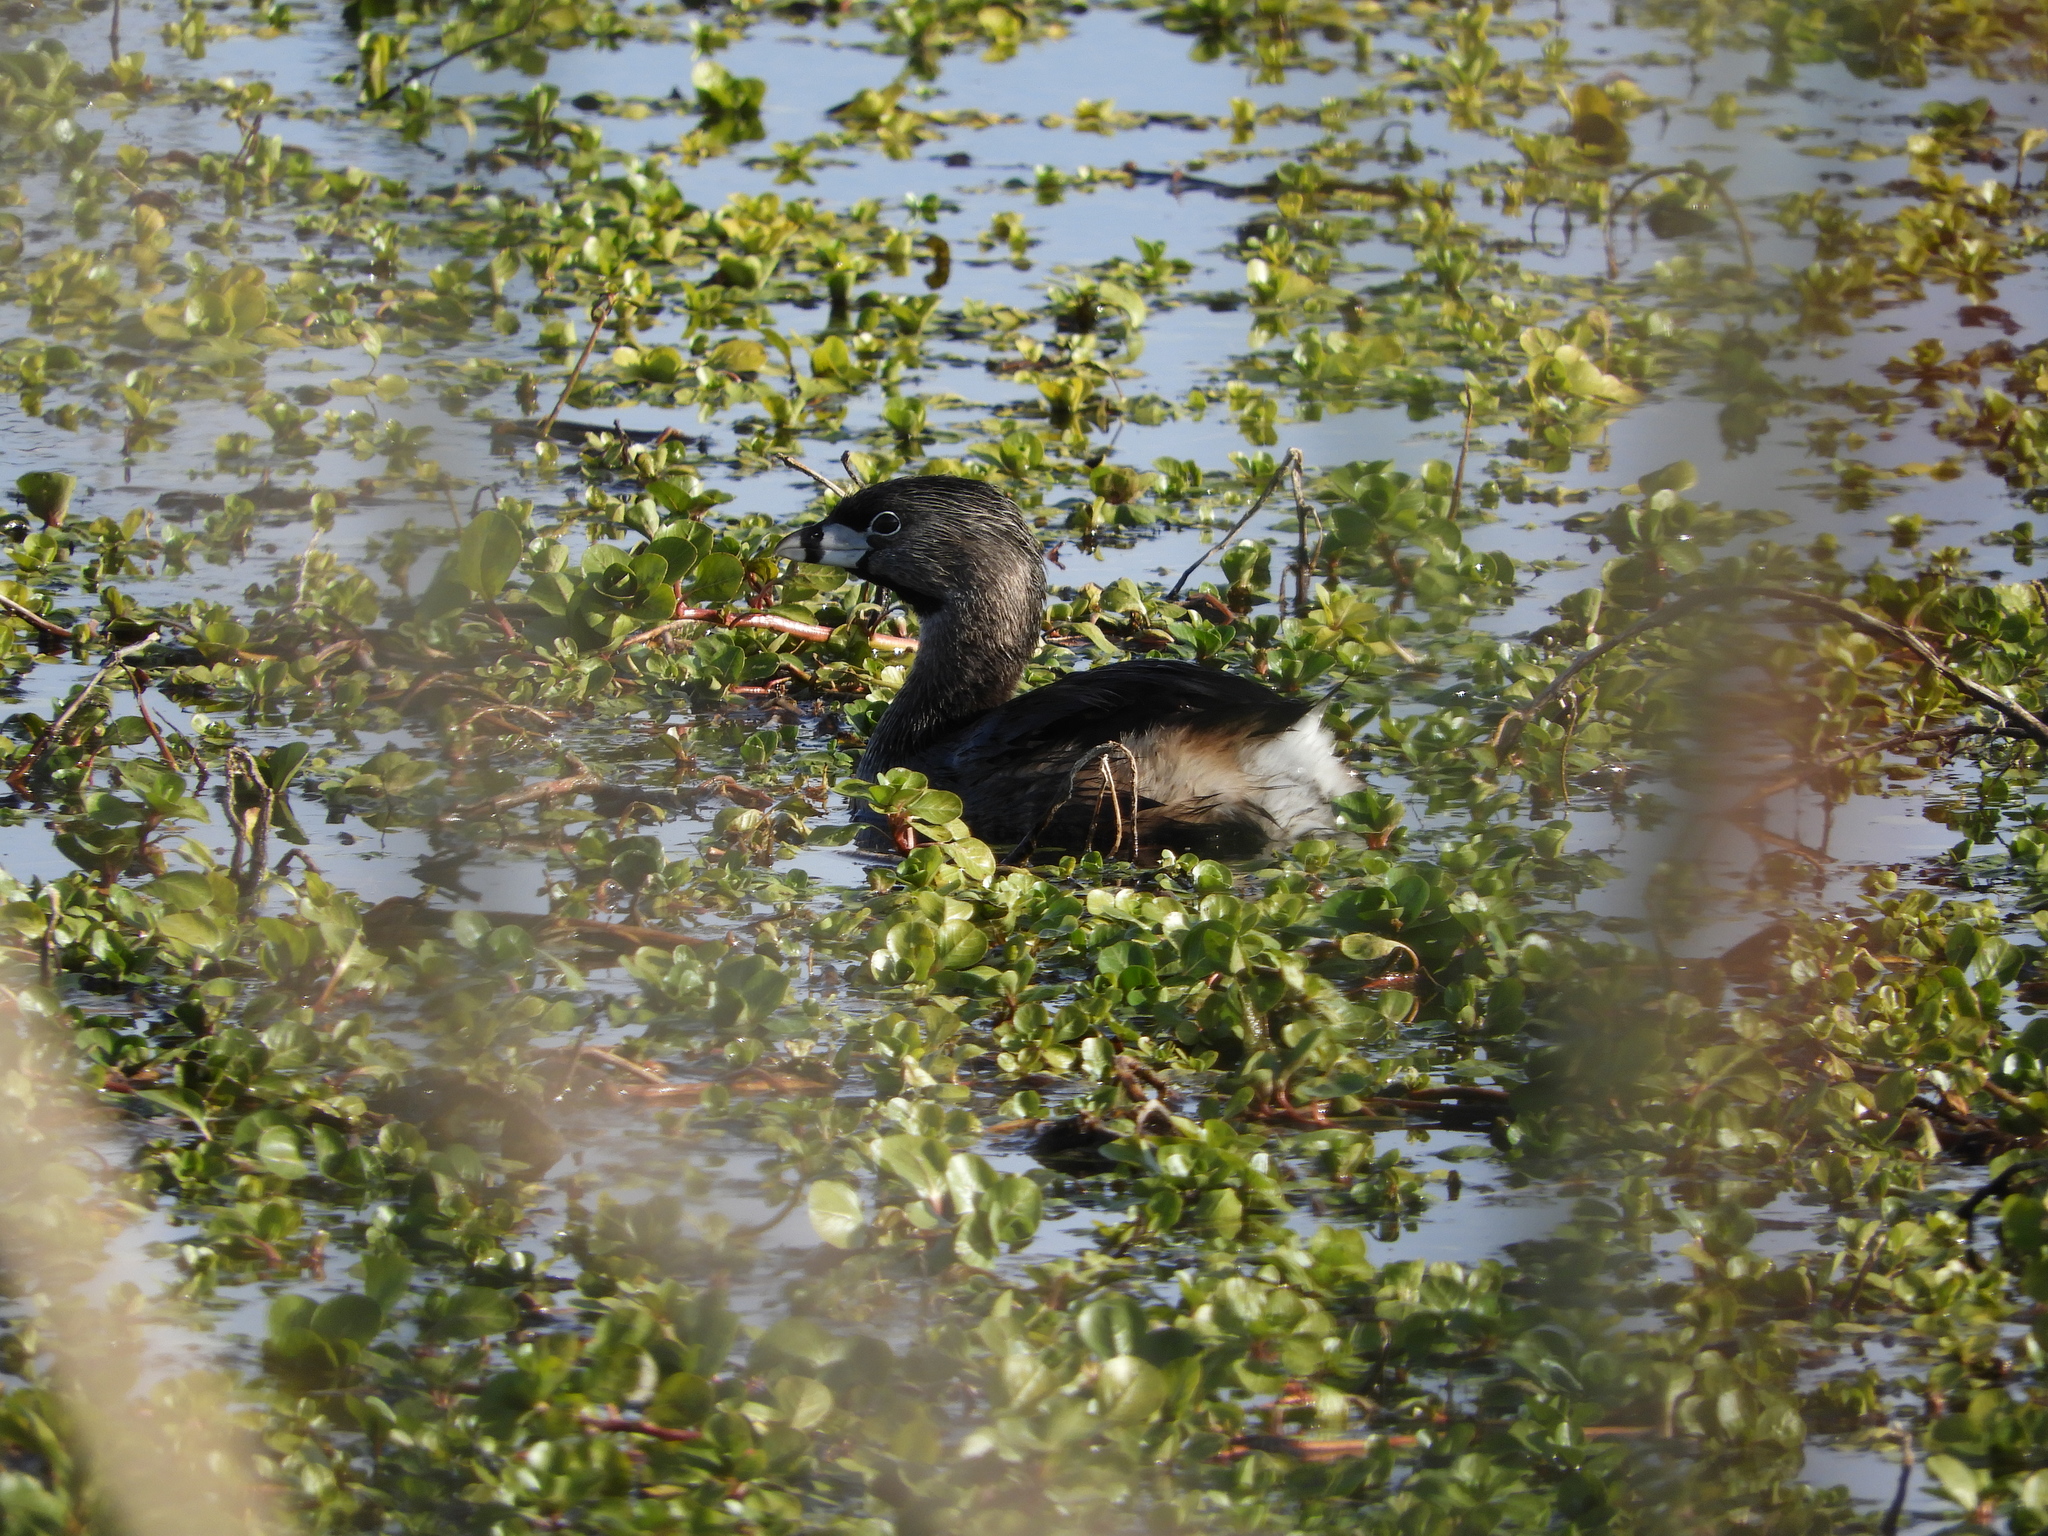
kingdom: Animalia
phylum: Chordata
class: Aves
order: Podicipediformes
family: Podicipedidae
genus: Podilymbus
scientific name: Podilymbus podiceps
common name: Pied-billed grebe
